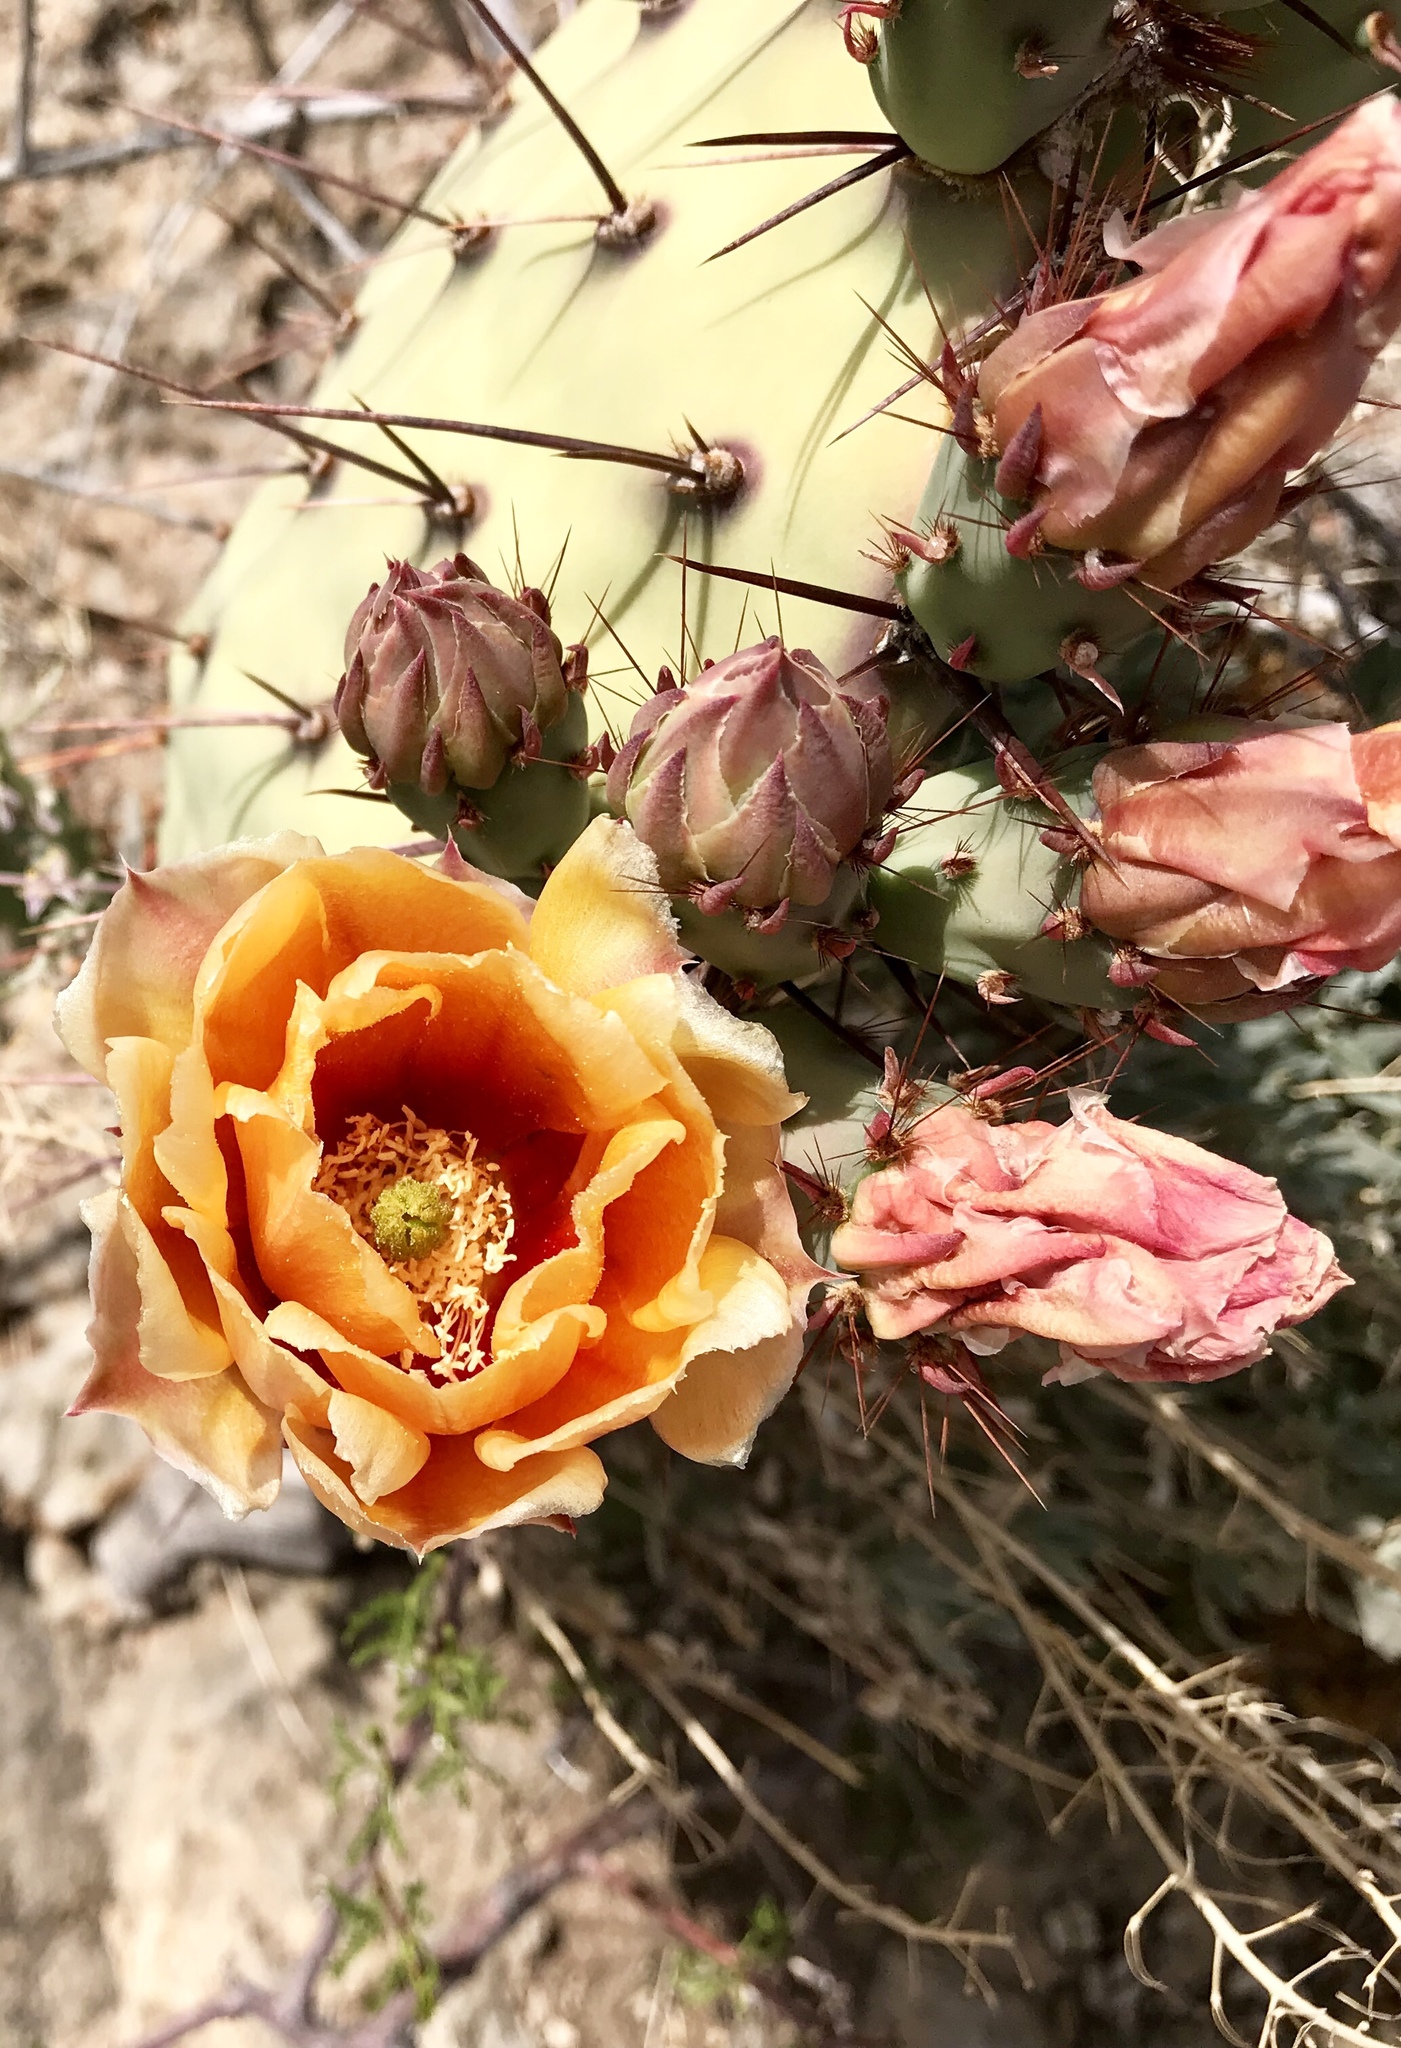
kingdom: Plantae
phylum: Tracheophyta
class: Magnoliopsida
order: Caryophyllales
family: Cactaceae
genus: Opuntia
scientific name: Opuntia phaeacantha
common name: New mexico prickly-pear
